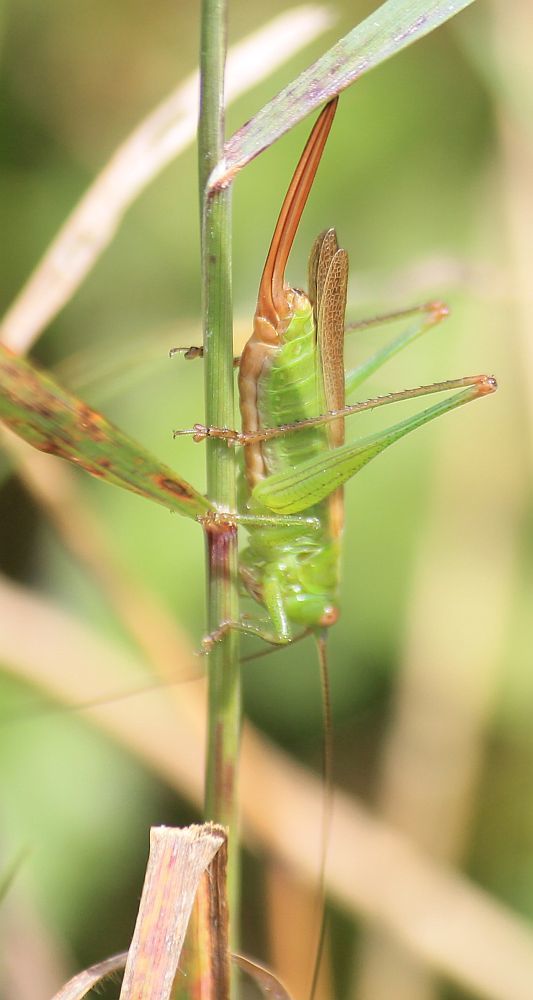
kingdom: Animalia
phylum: Arthropoda
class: Insecta
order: Orthoptera
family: Tettigoniidae
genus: Conocephalus
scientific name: Conocephalus fuscus
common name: Long-winged conehead
